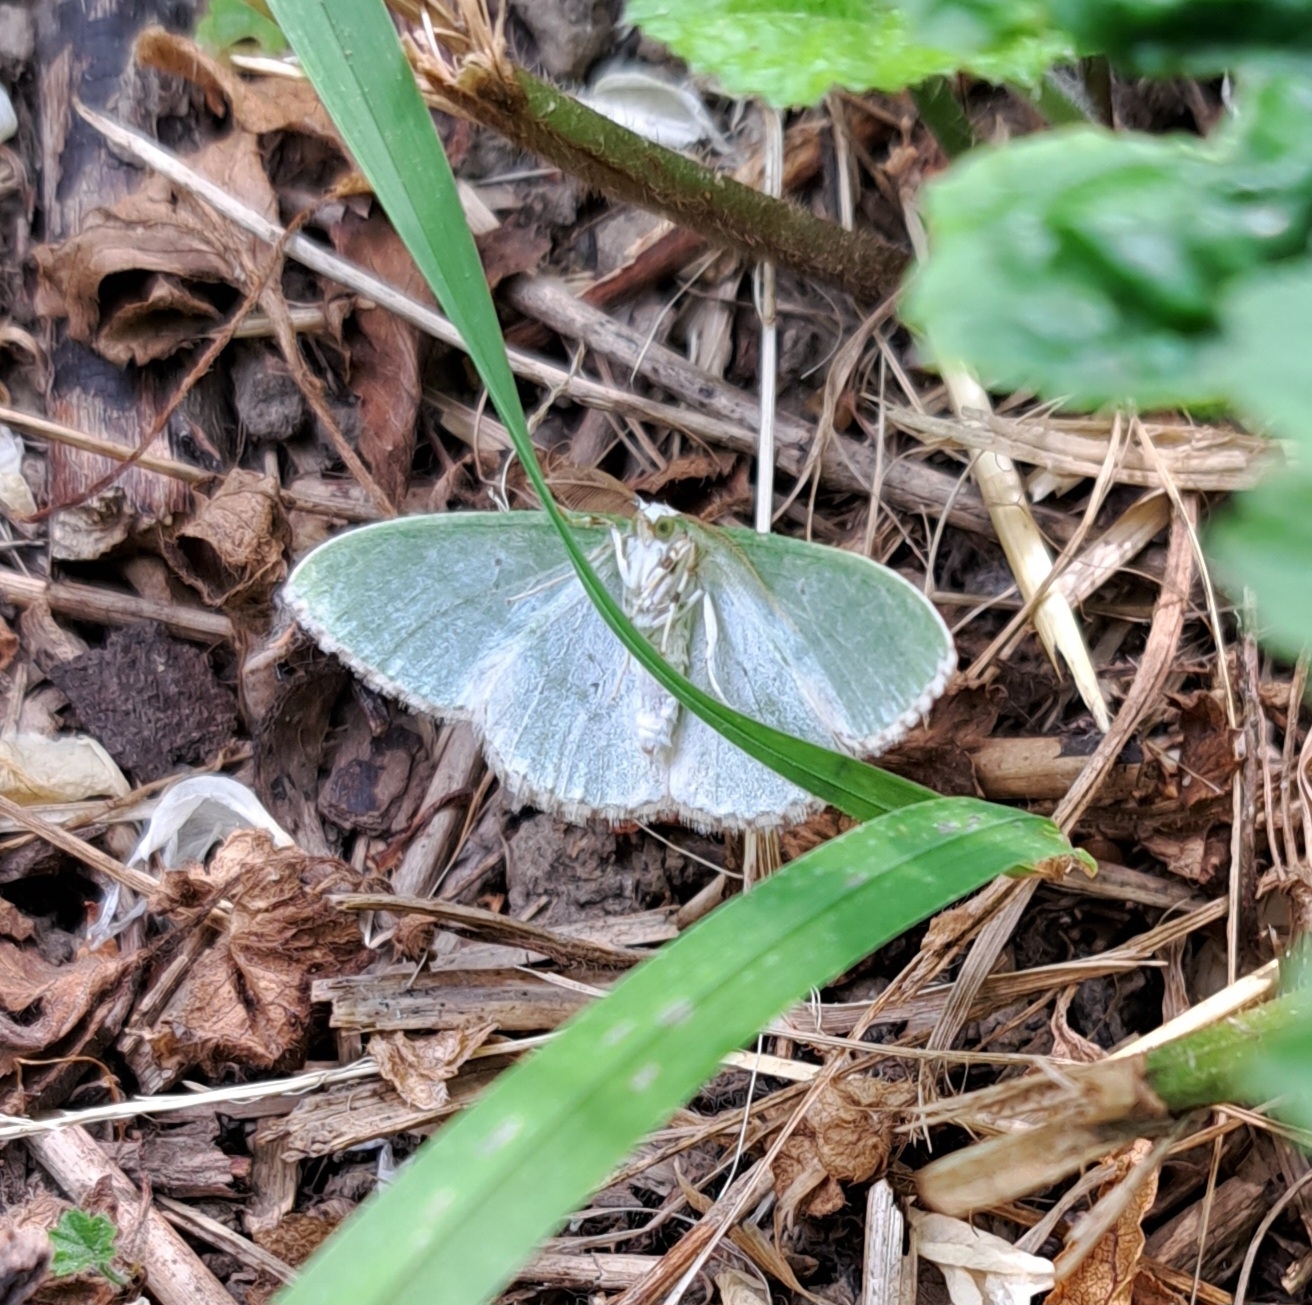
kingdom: Animalia
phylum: Arthropoda
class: Insecta
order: Lepidoptera
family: Geometridae
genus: Comibaena
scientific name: Comibaena bajularia
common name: Blotched emerald
